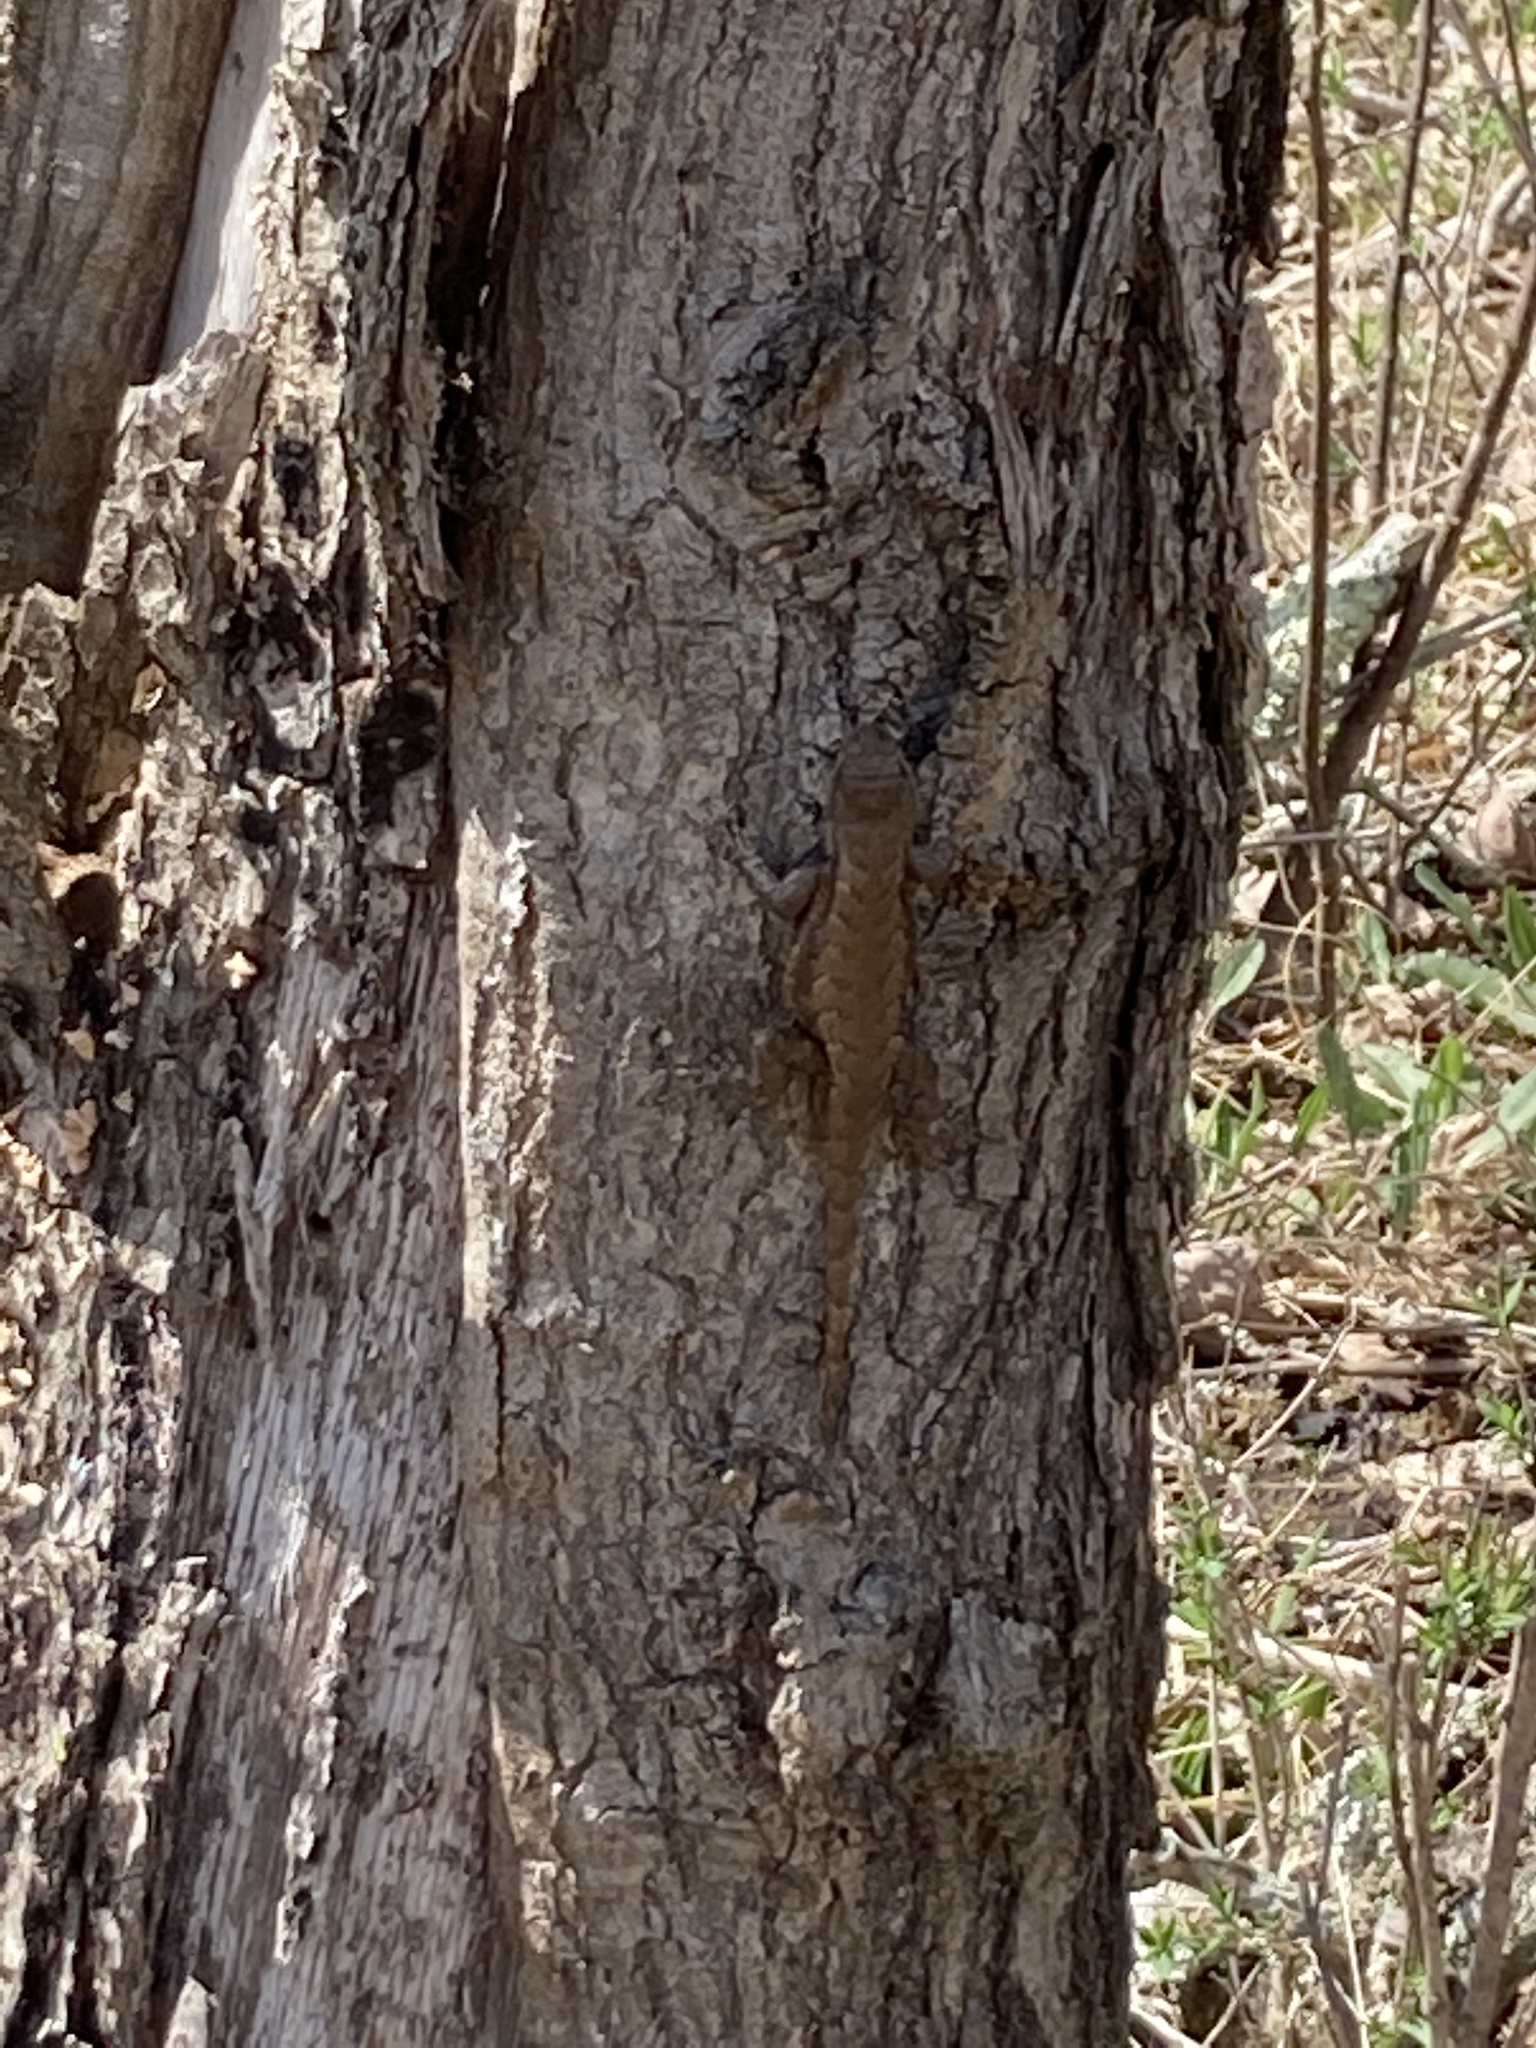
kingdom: Animalia
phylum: Chordata
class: Squamata
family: Phrynosomatidae
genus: Sceloporus
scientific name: Sceloporus undulatus
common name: Eastern fence lizard
